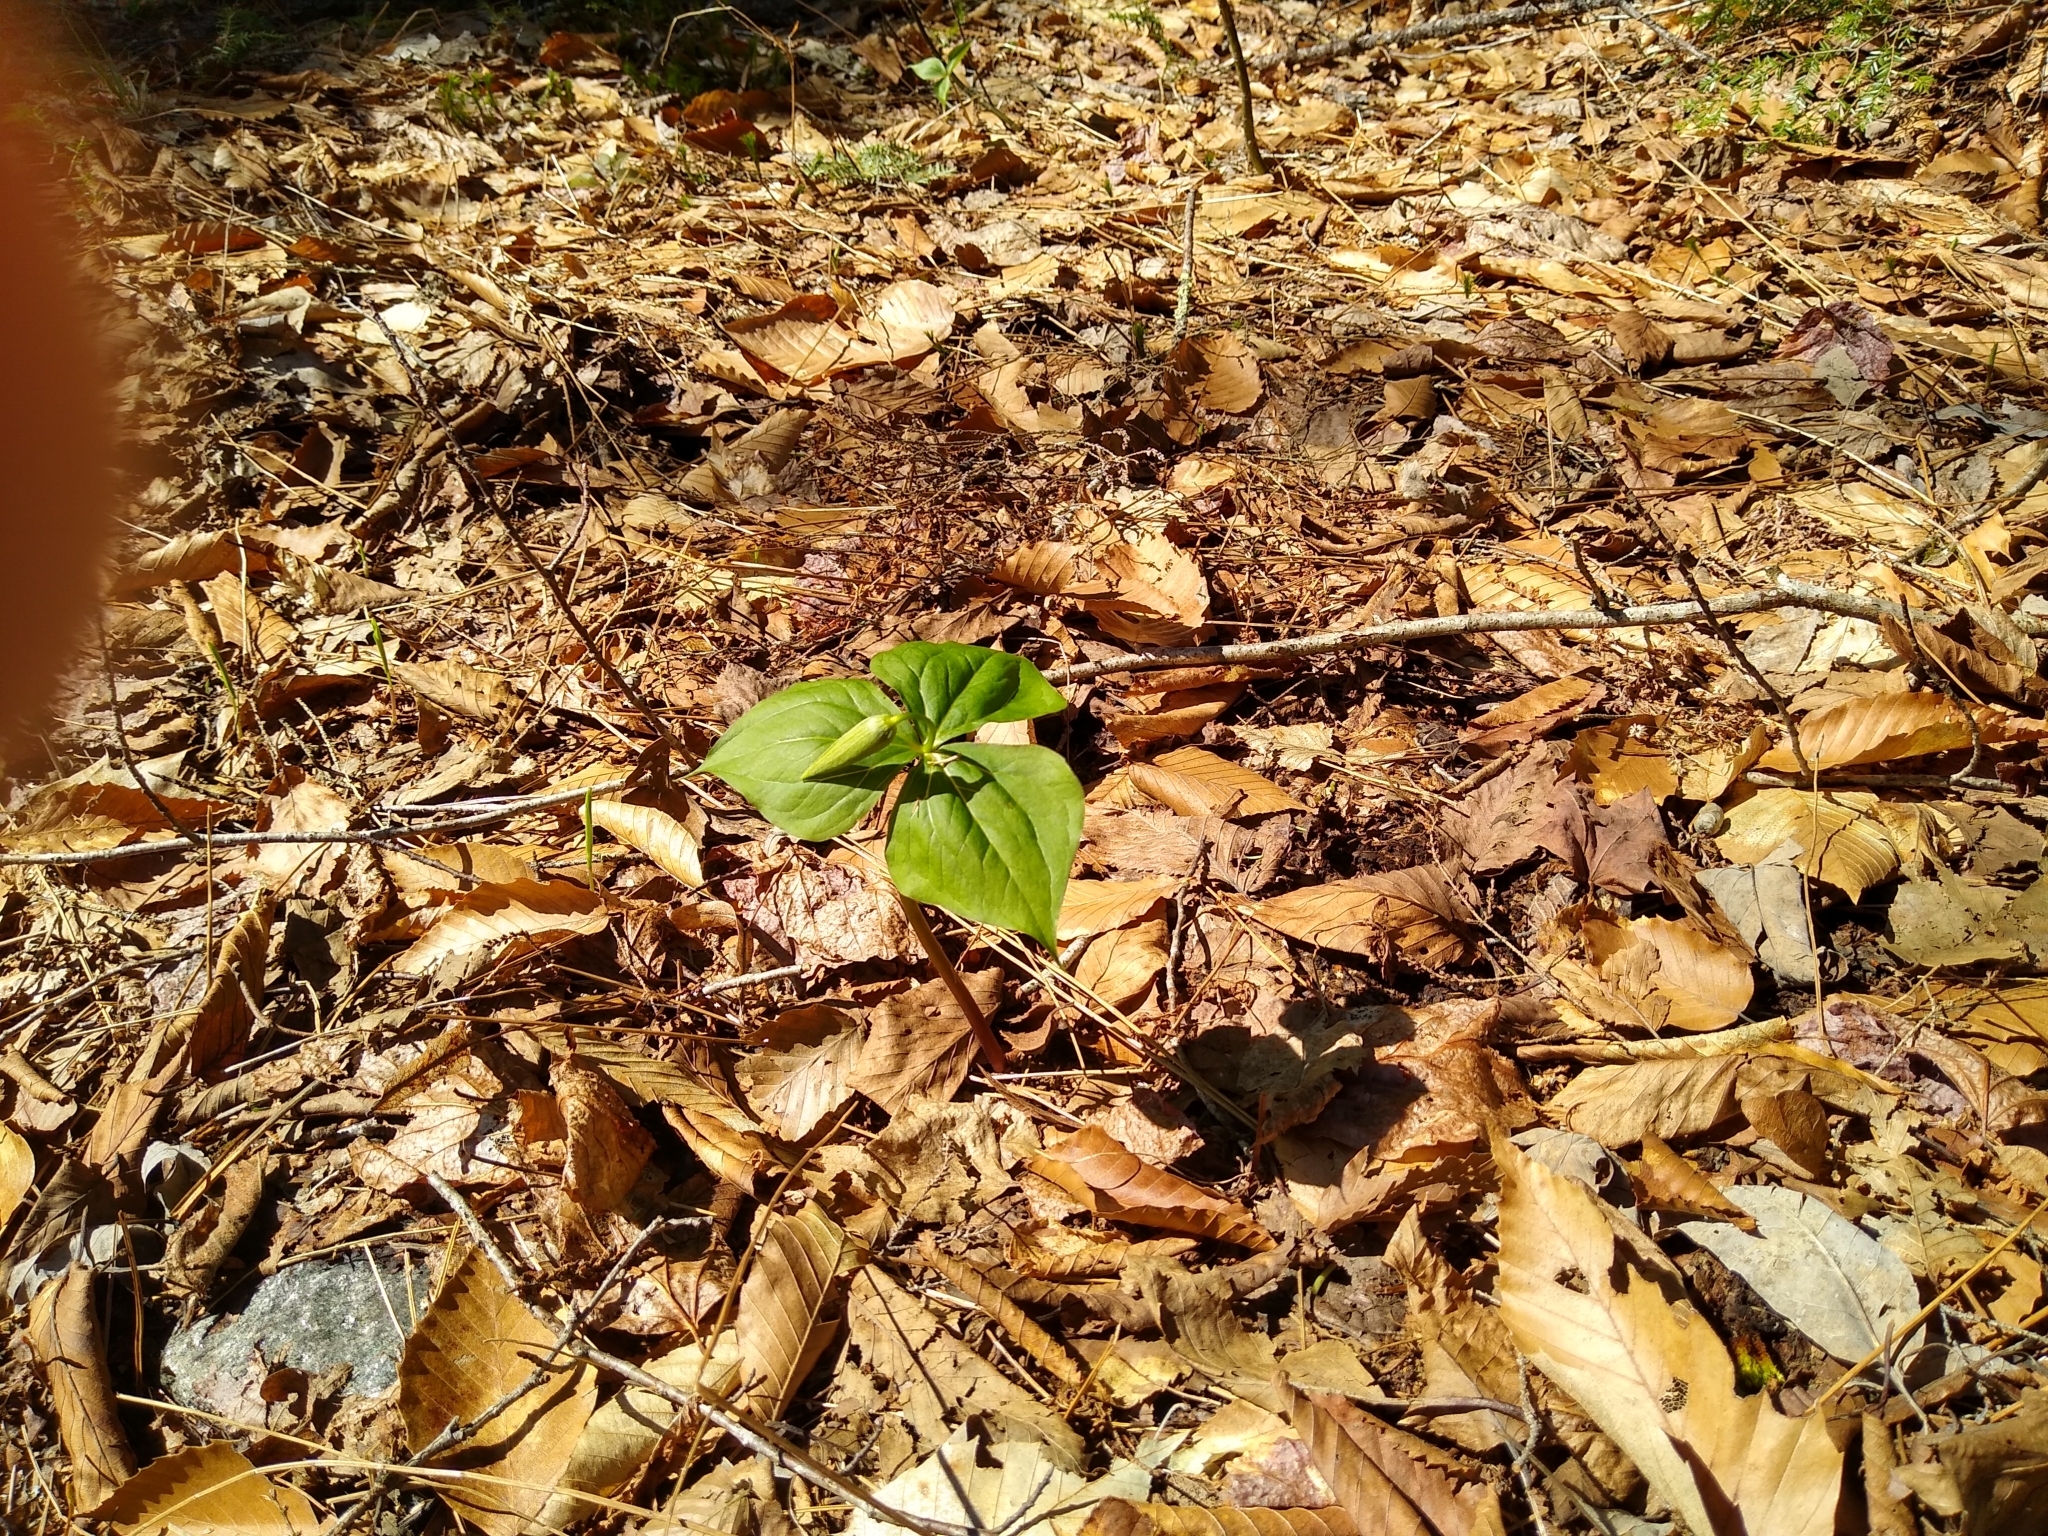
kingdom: Plantae
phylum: Tracheophyta
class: Liliopsida
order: Liliales
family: Melanthiaceae
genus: Trillium
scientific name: Trillium erectum
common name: Purple trillium
